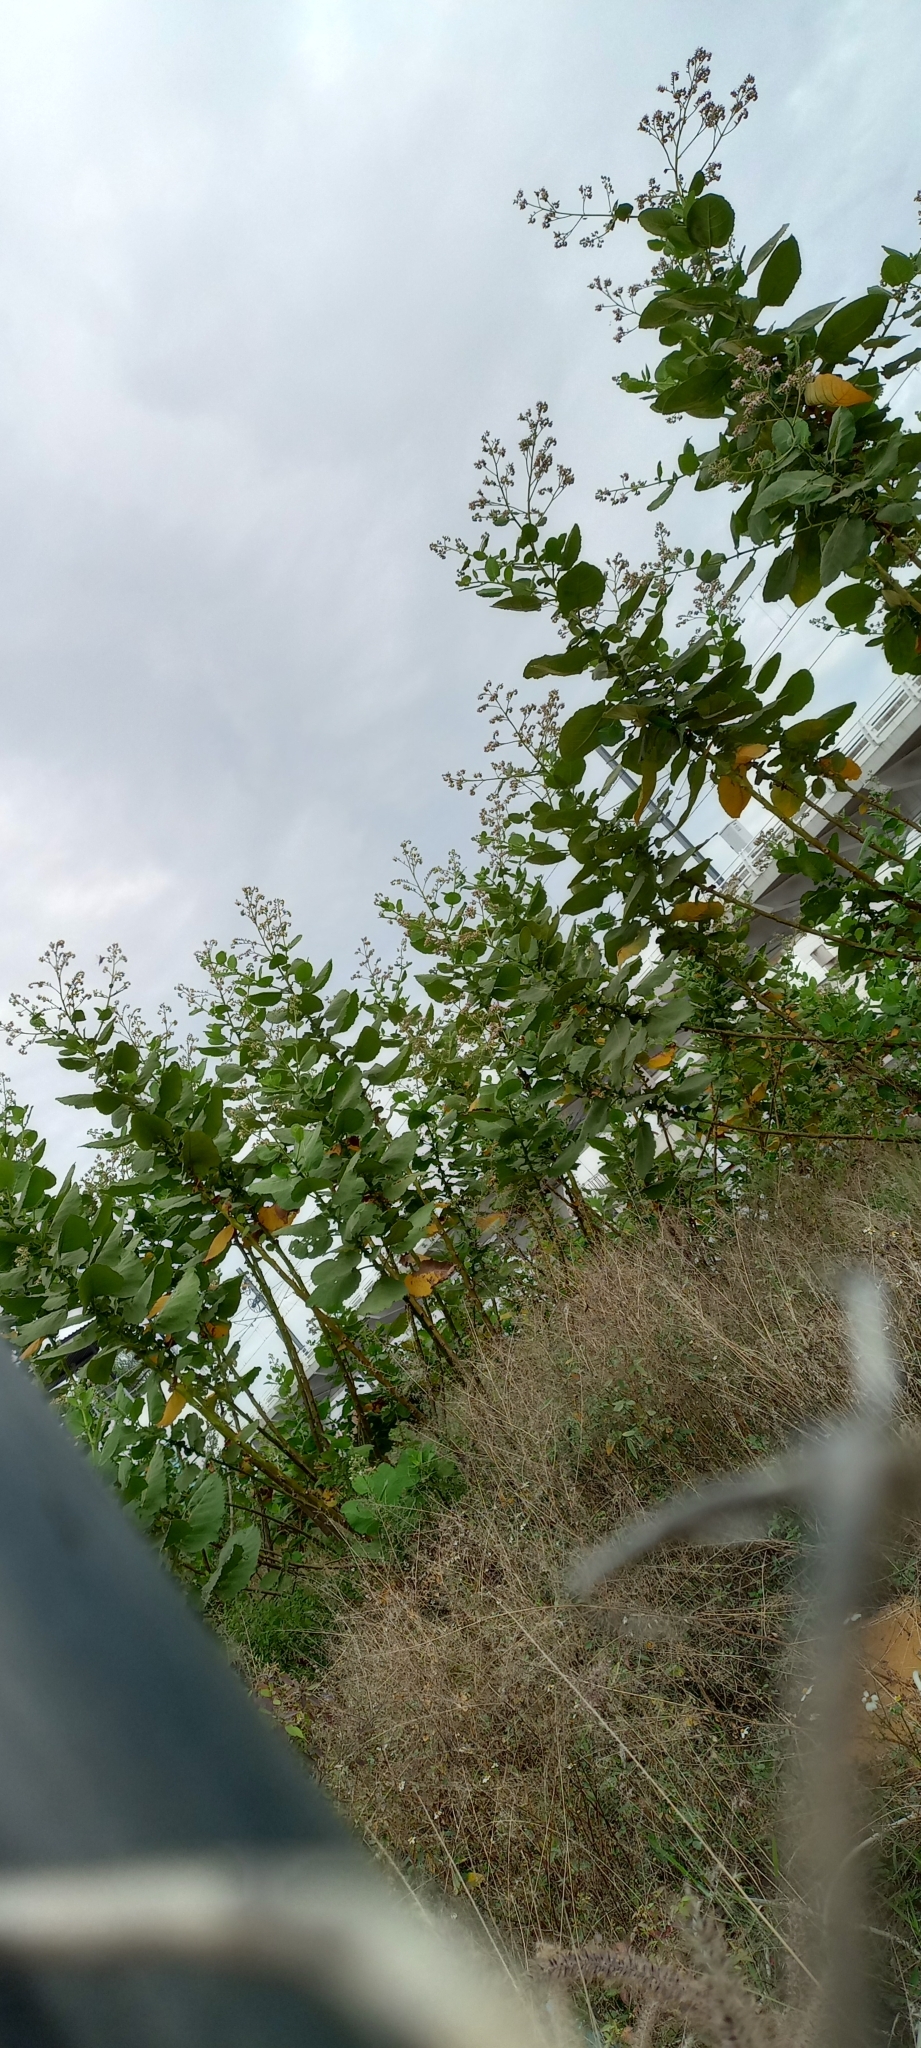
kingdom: Plantae
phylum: Tracheophyta
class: Magnoliopsida
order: Boraginales
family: Namaceae
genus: Wigandia
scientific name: Wigandia urens
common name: Caracus wigandia
